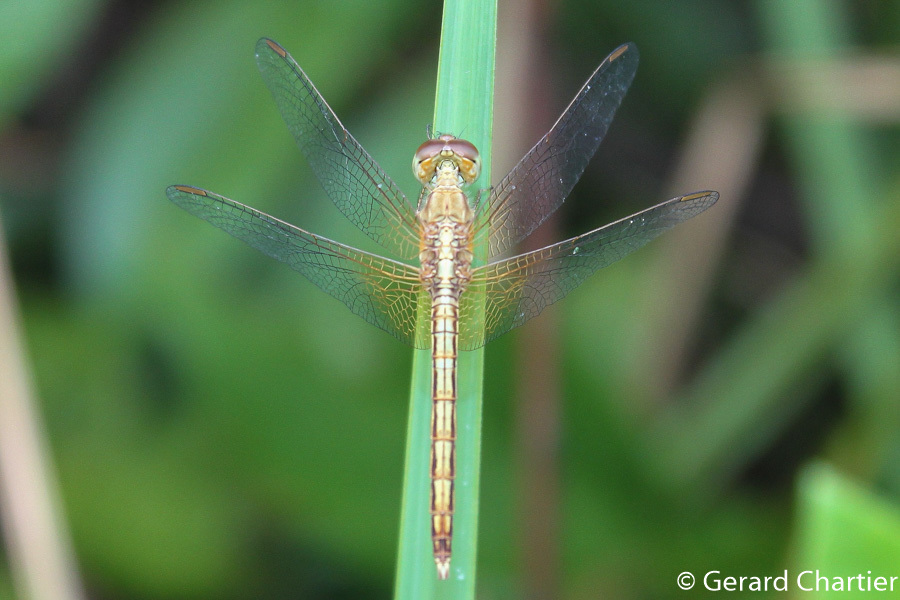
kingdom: Animalia
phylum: Arthropoda
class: Insecta
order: Odonata
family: Libellulidae
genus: Neurothemis
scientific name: Neurothemis intermedia
